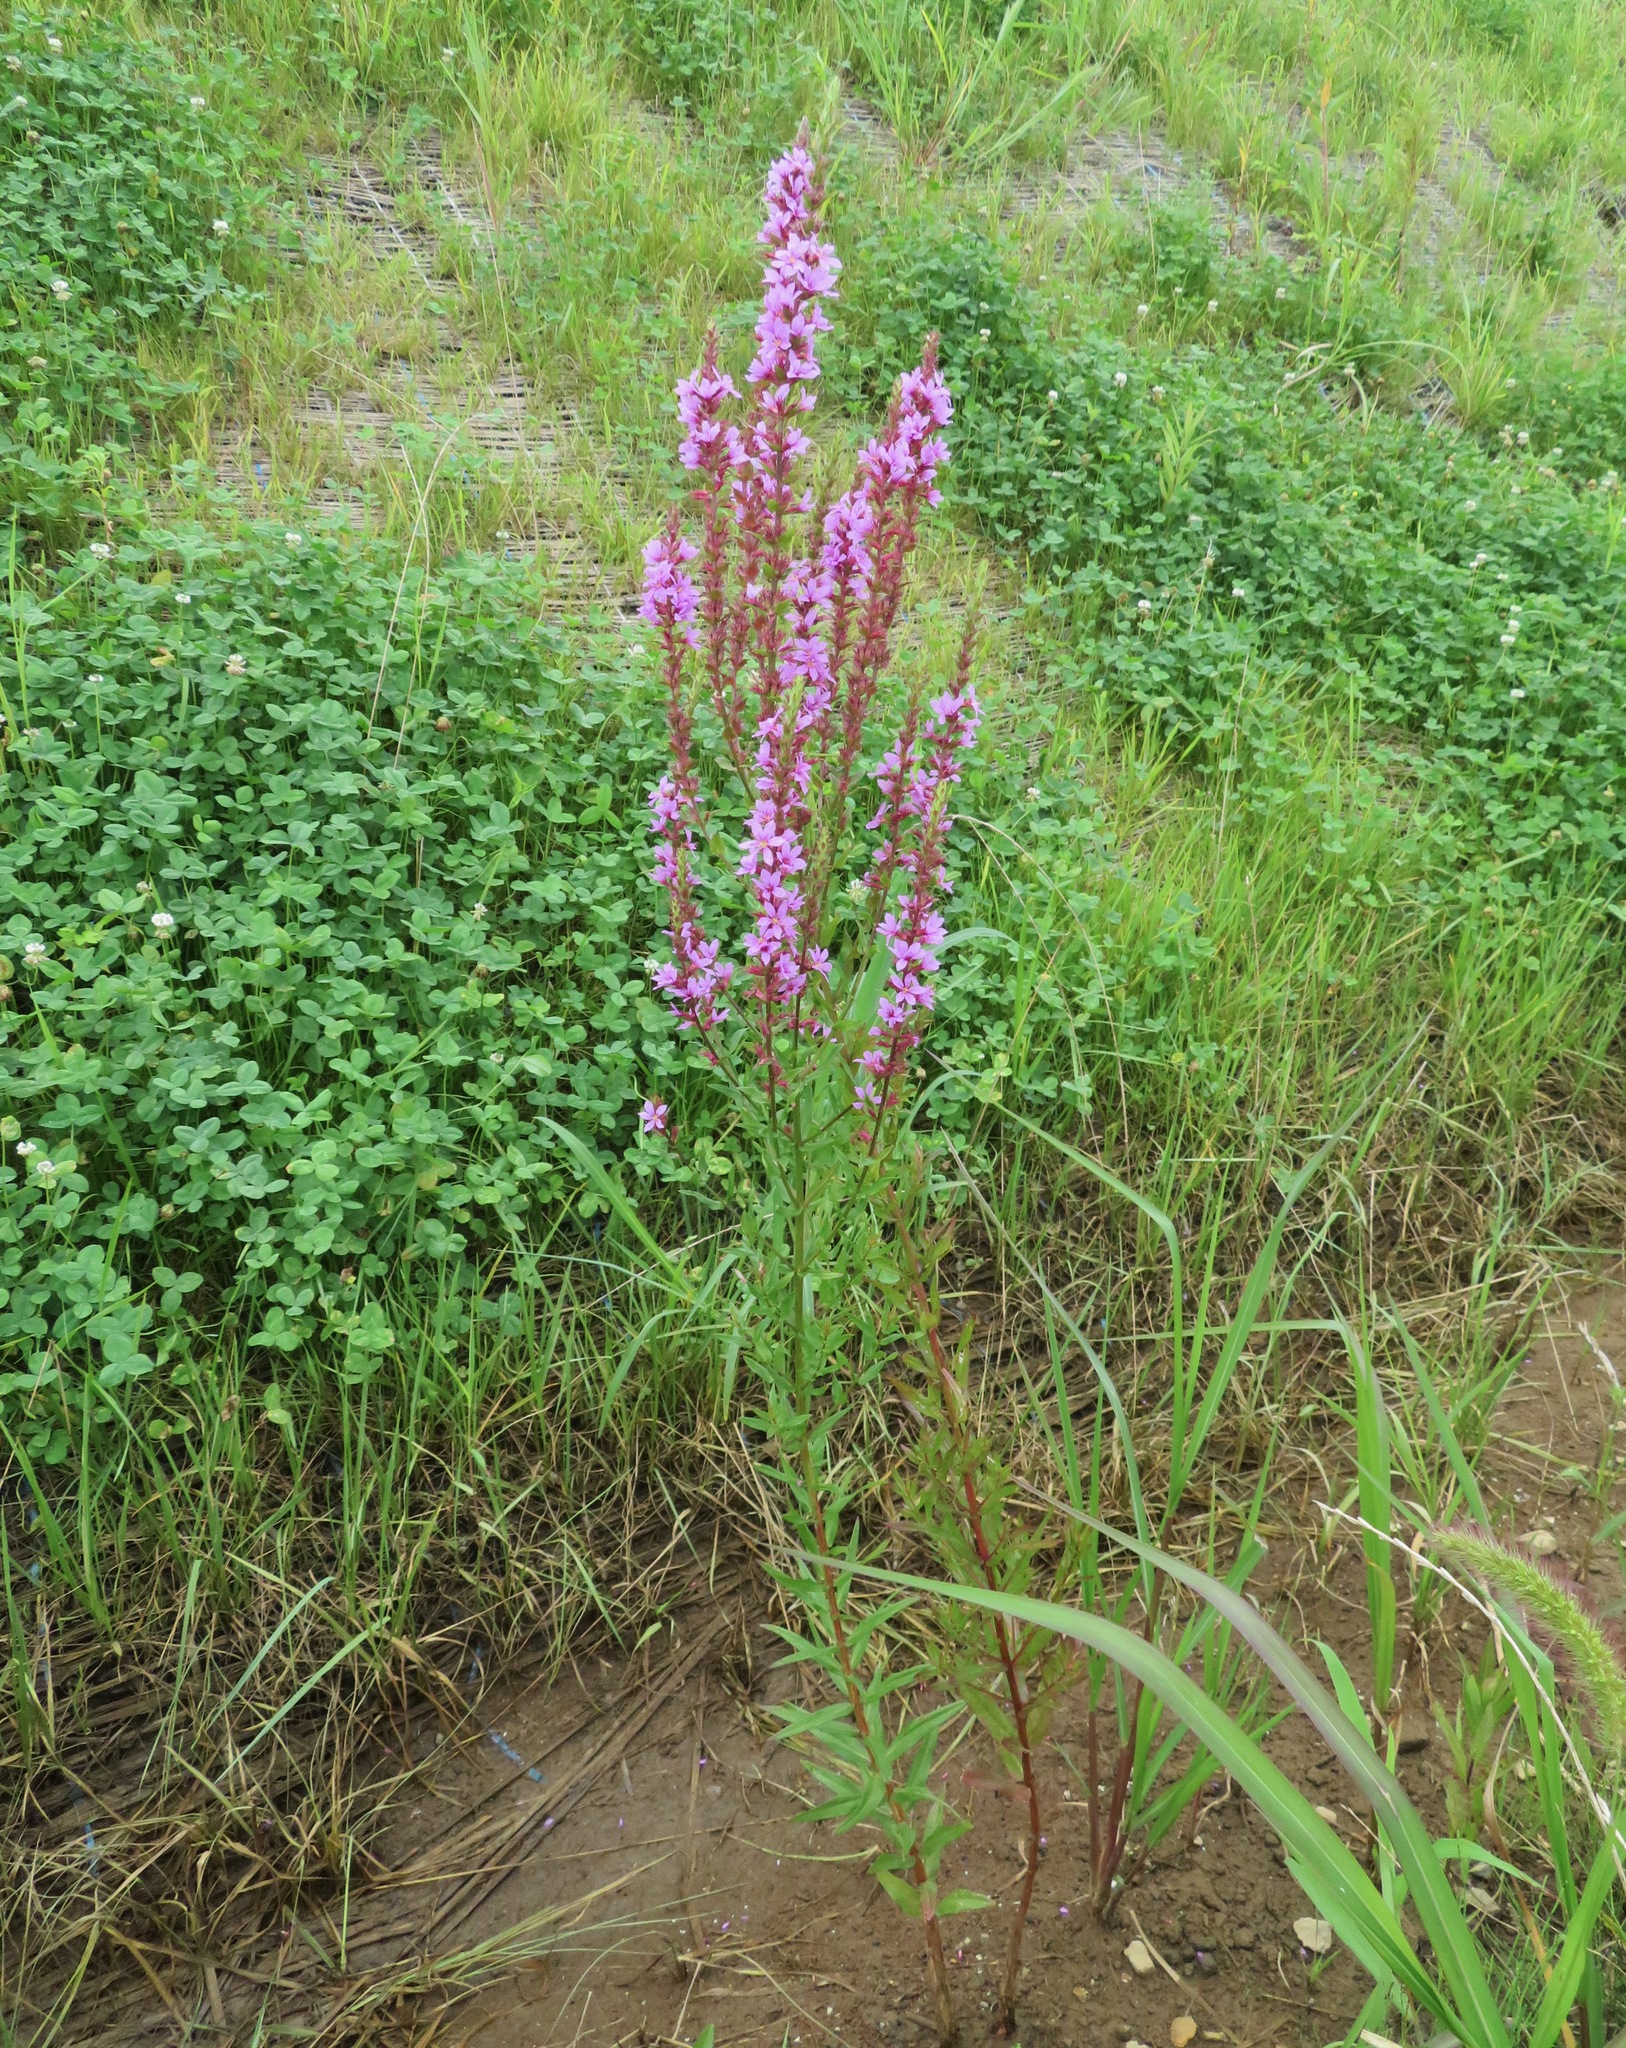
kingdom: Plantae
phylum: Tracheophyta
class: Magnoliopsida
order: Myrtales
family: Lythraceae
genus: Lythrum
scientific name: Lythrum salicaria
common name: Purple loosestrife
